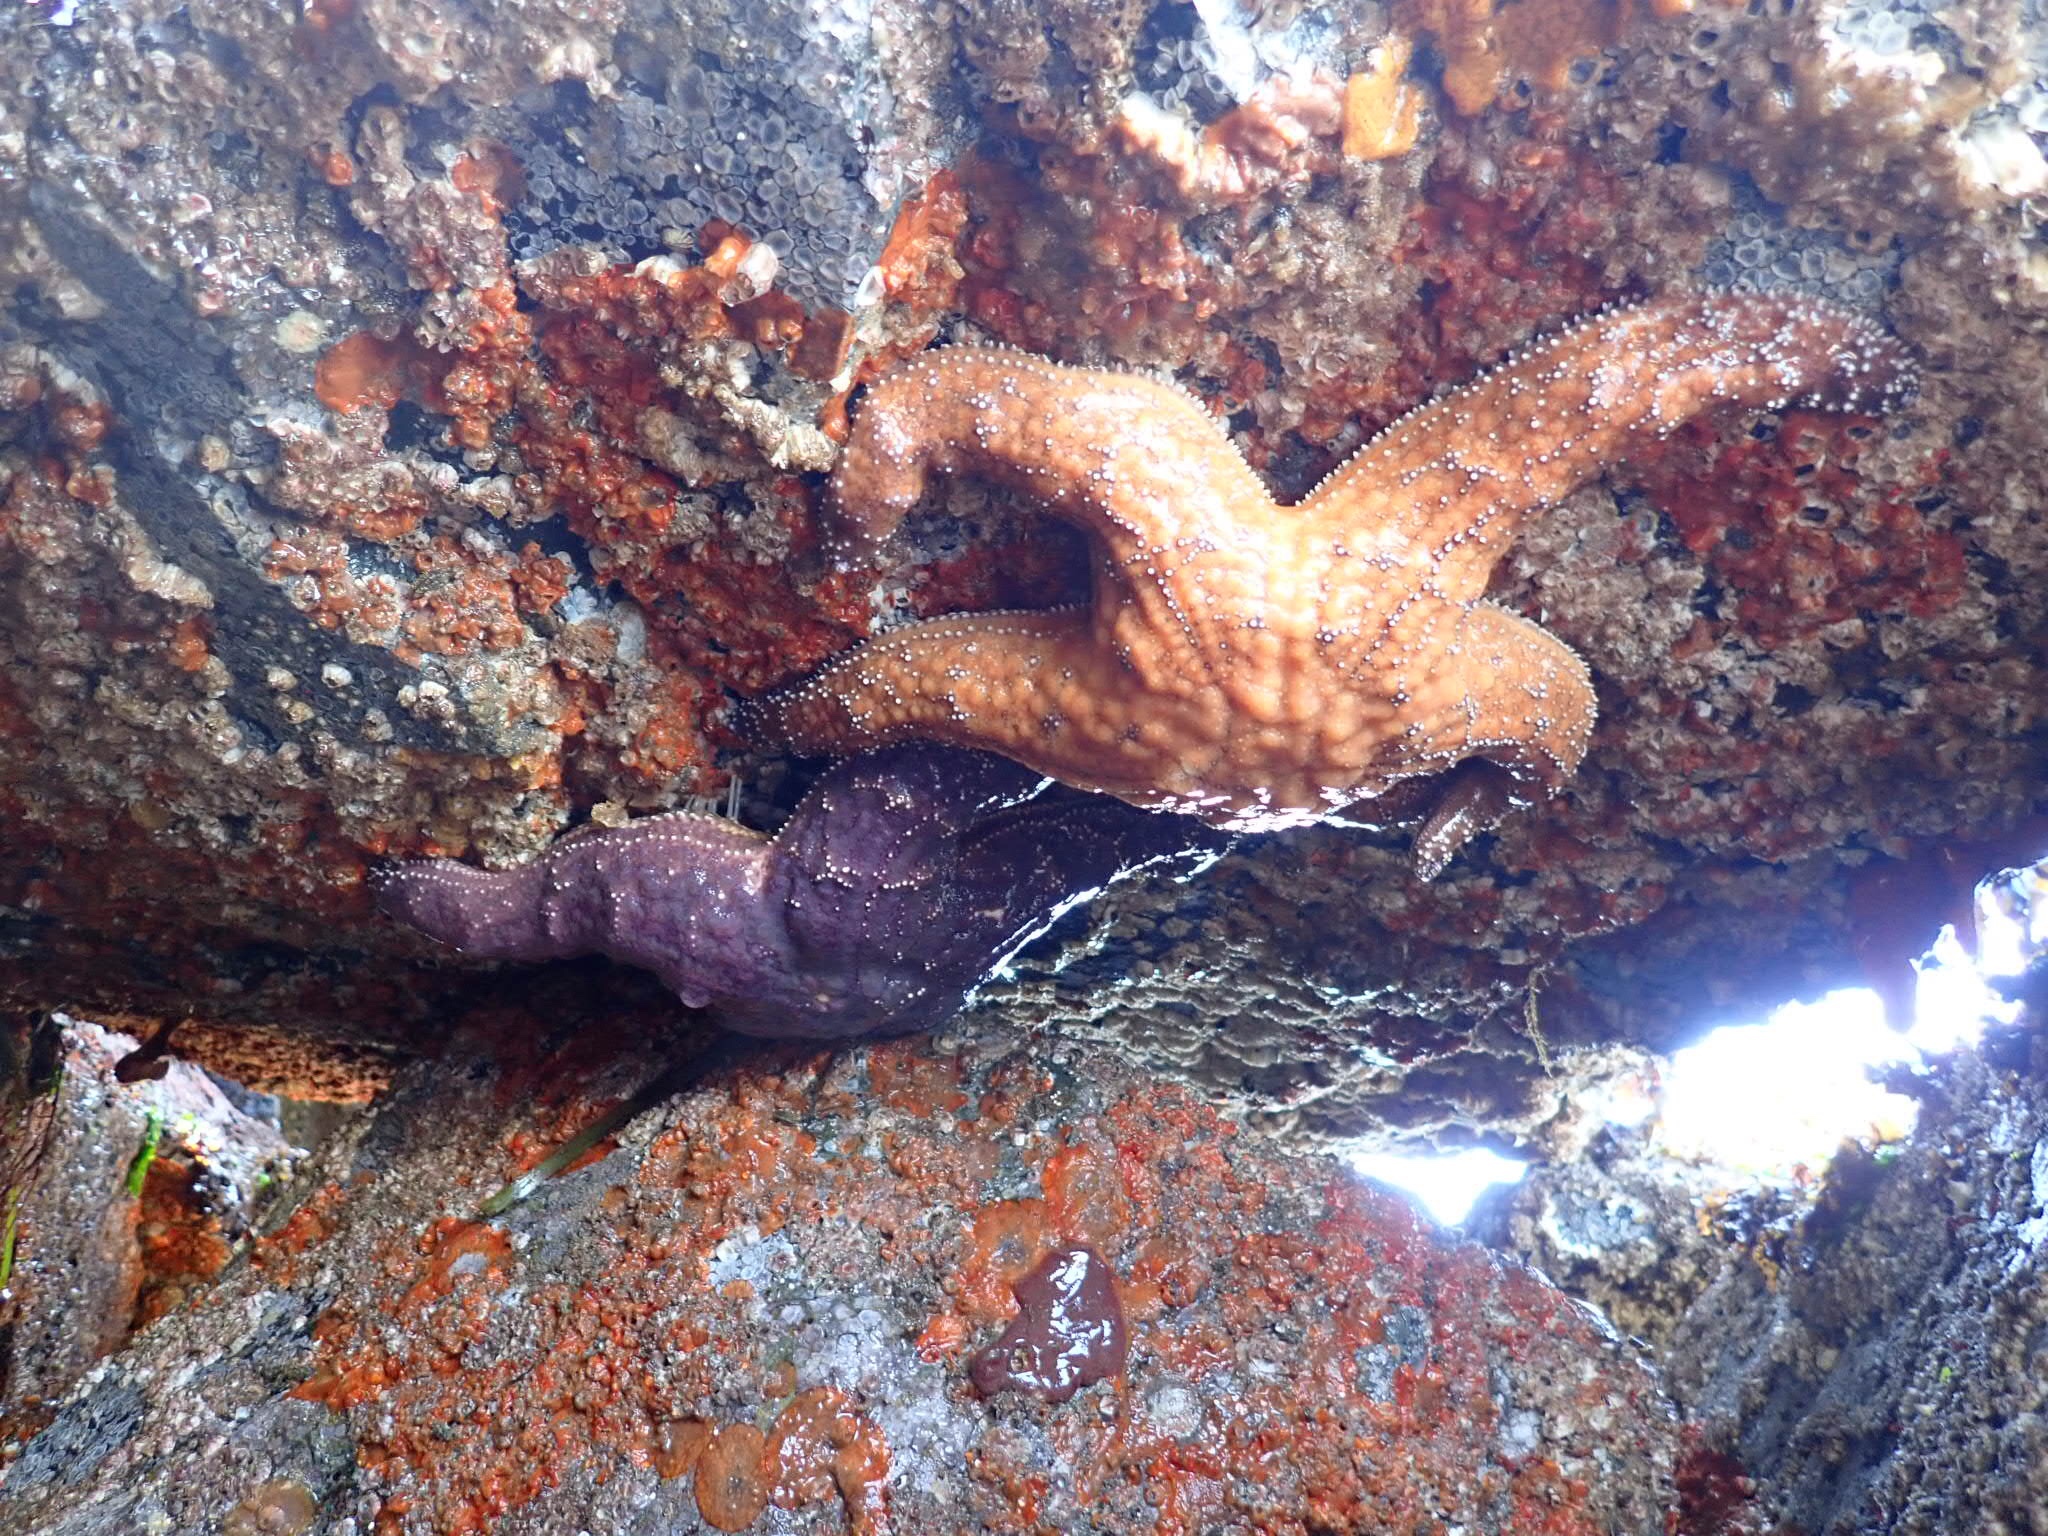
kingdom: Animalia
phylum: Echinodermata
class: Asteroidea
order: Forcipulatida
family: Asteriidae
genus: Pisaster
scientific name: Pisaster ochraceus
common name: Ochre stars
